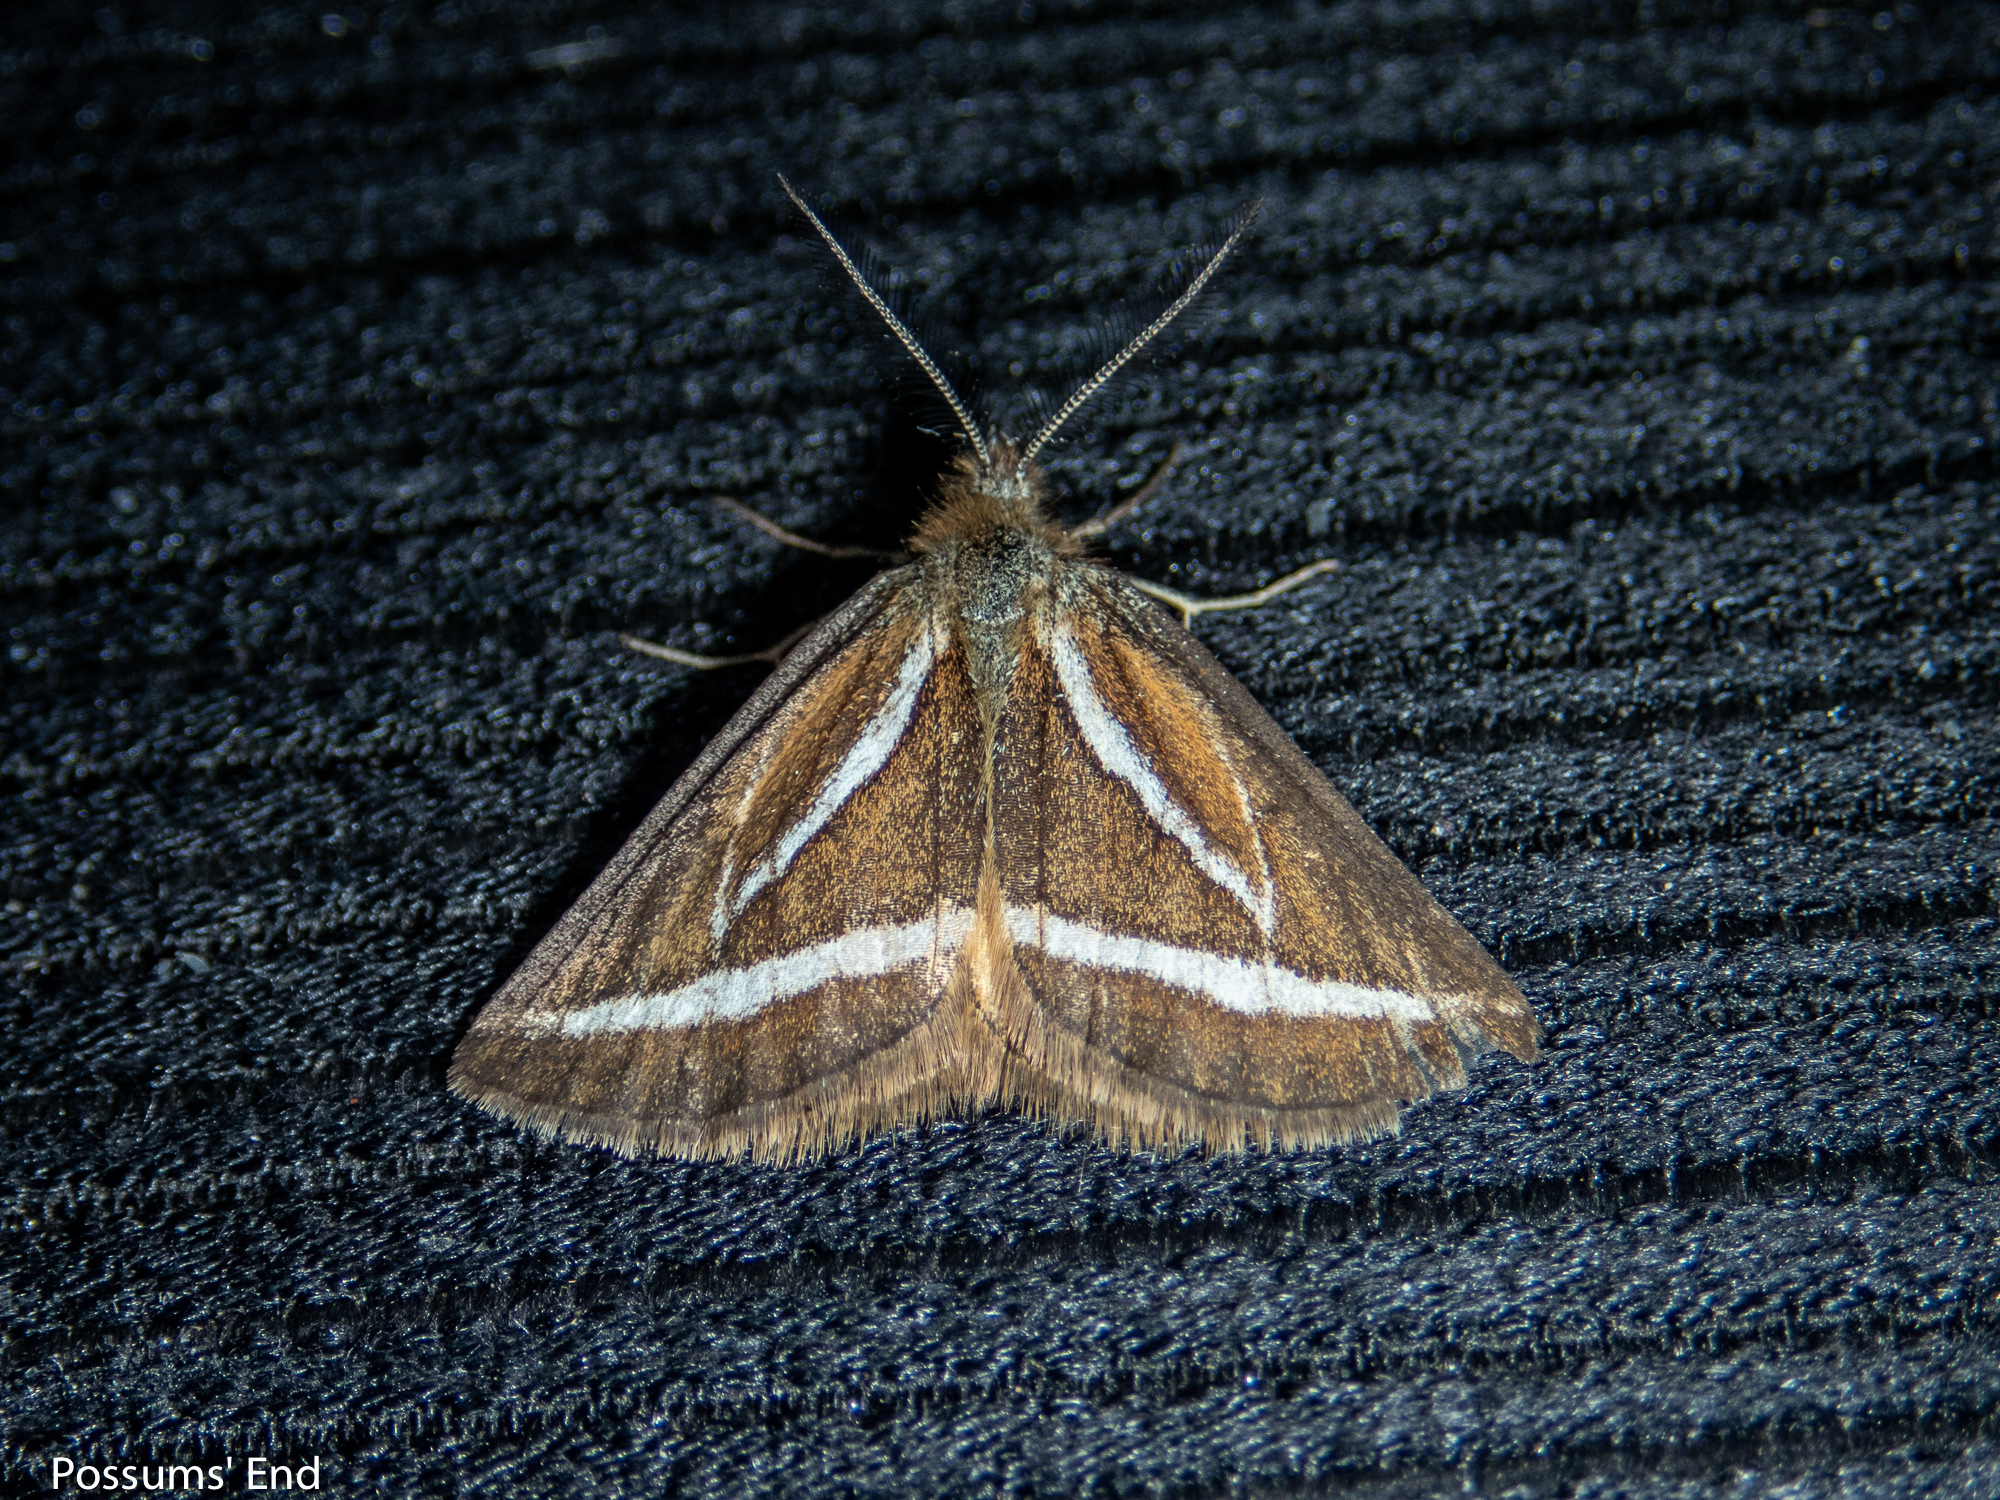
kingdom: Animalia
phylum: Arthropoda
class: Insecta
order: Lepidoptera
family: Geometridae
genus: Aponotoreas
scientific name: Aponotoreas insignis
